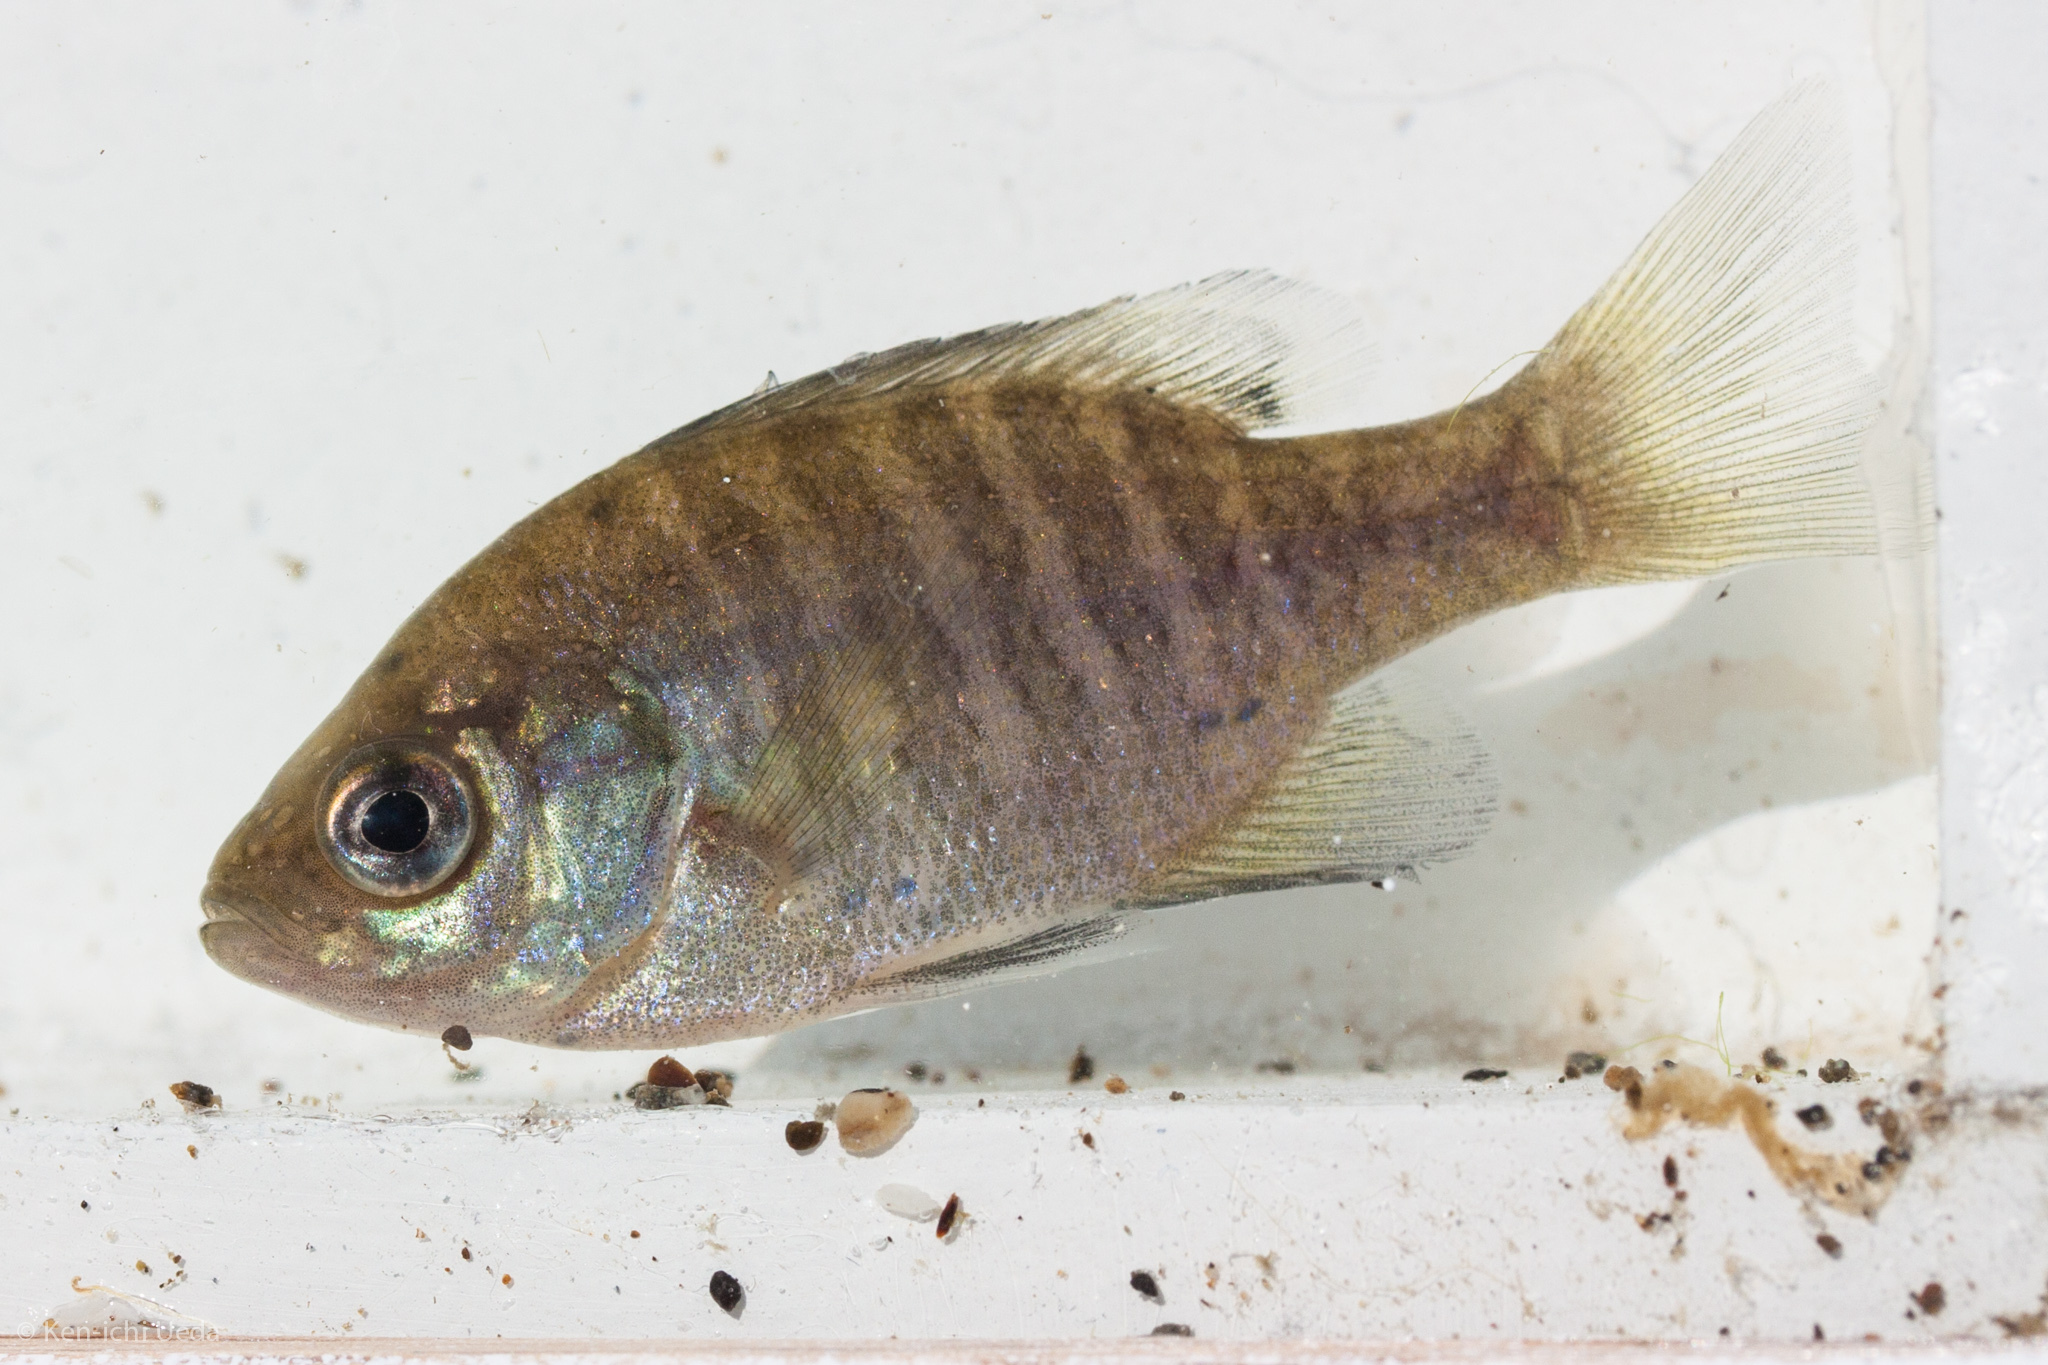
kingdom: Animalia
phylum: Chordata
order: Perciformes
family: Centrarchidae
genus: Lepomis
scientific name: Lepomis macrochirus
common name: Bluegill
